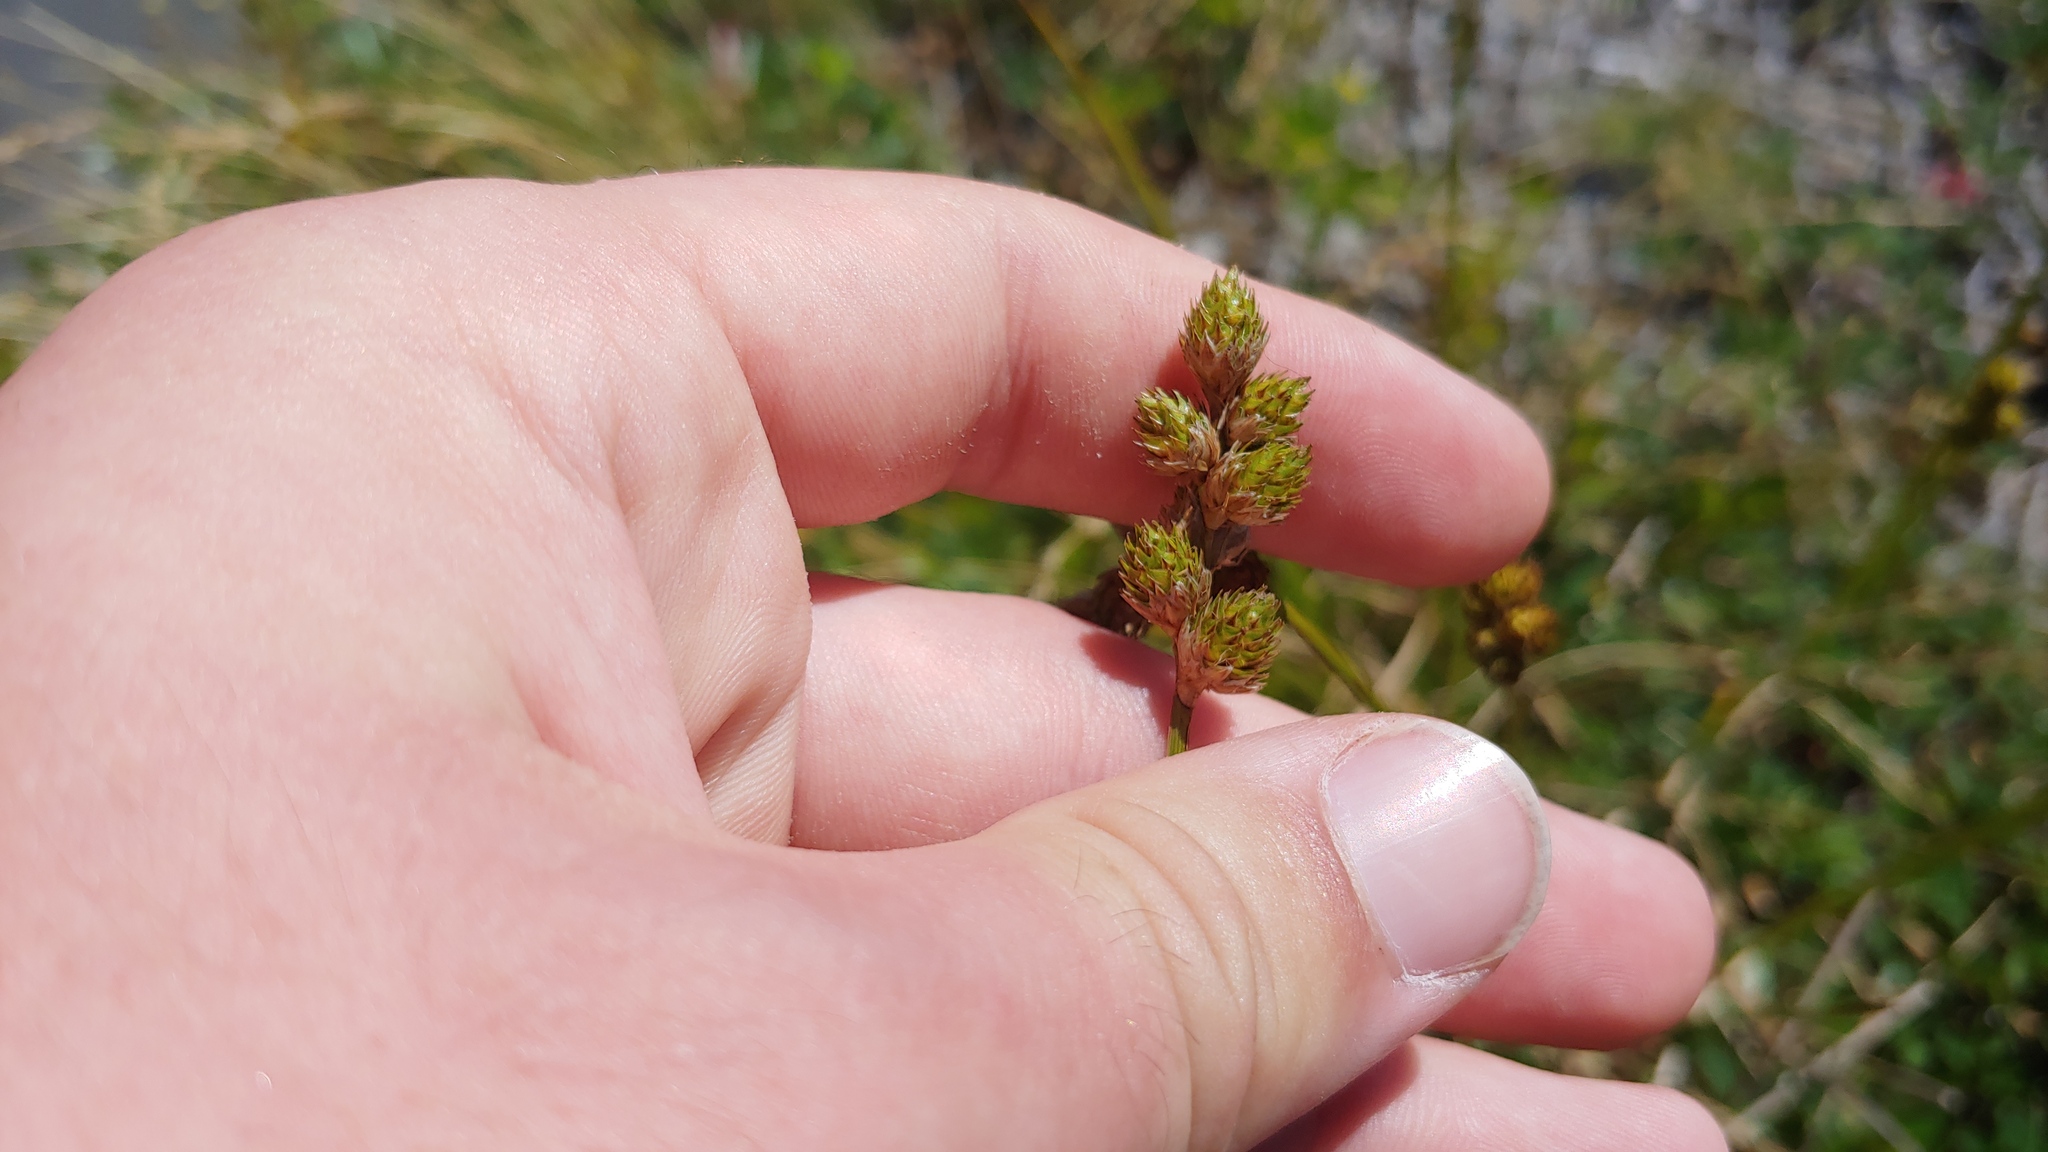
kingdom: Plantae
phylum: Tracheophyta
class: Liliopsida
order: Poales
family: Cyperaceae
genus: Carex
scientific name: Carex cumulata
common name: Accumulating sedge
